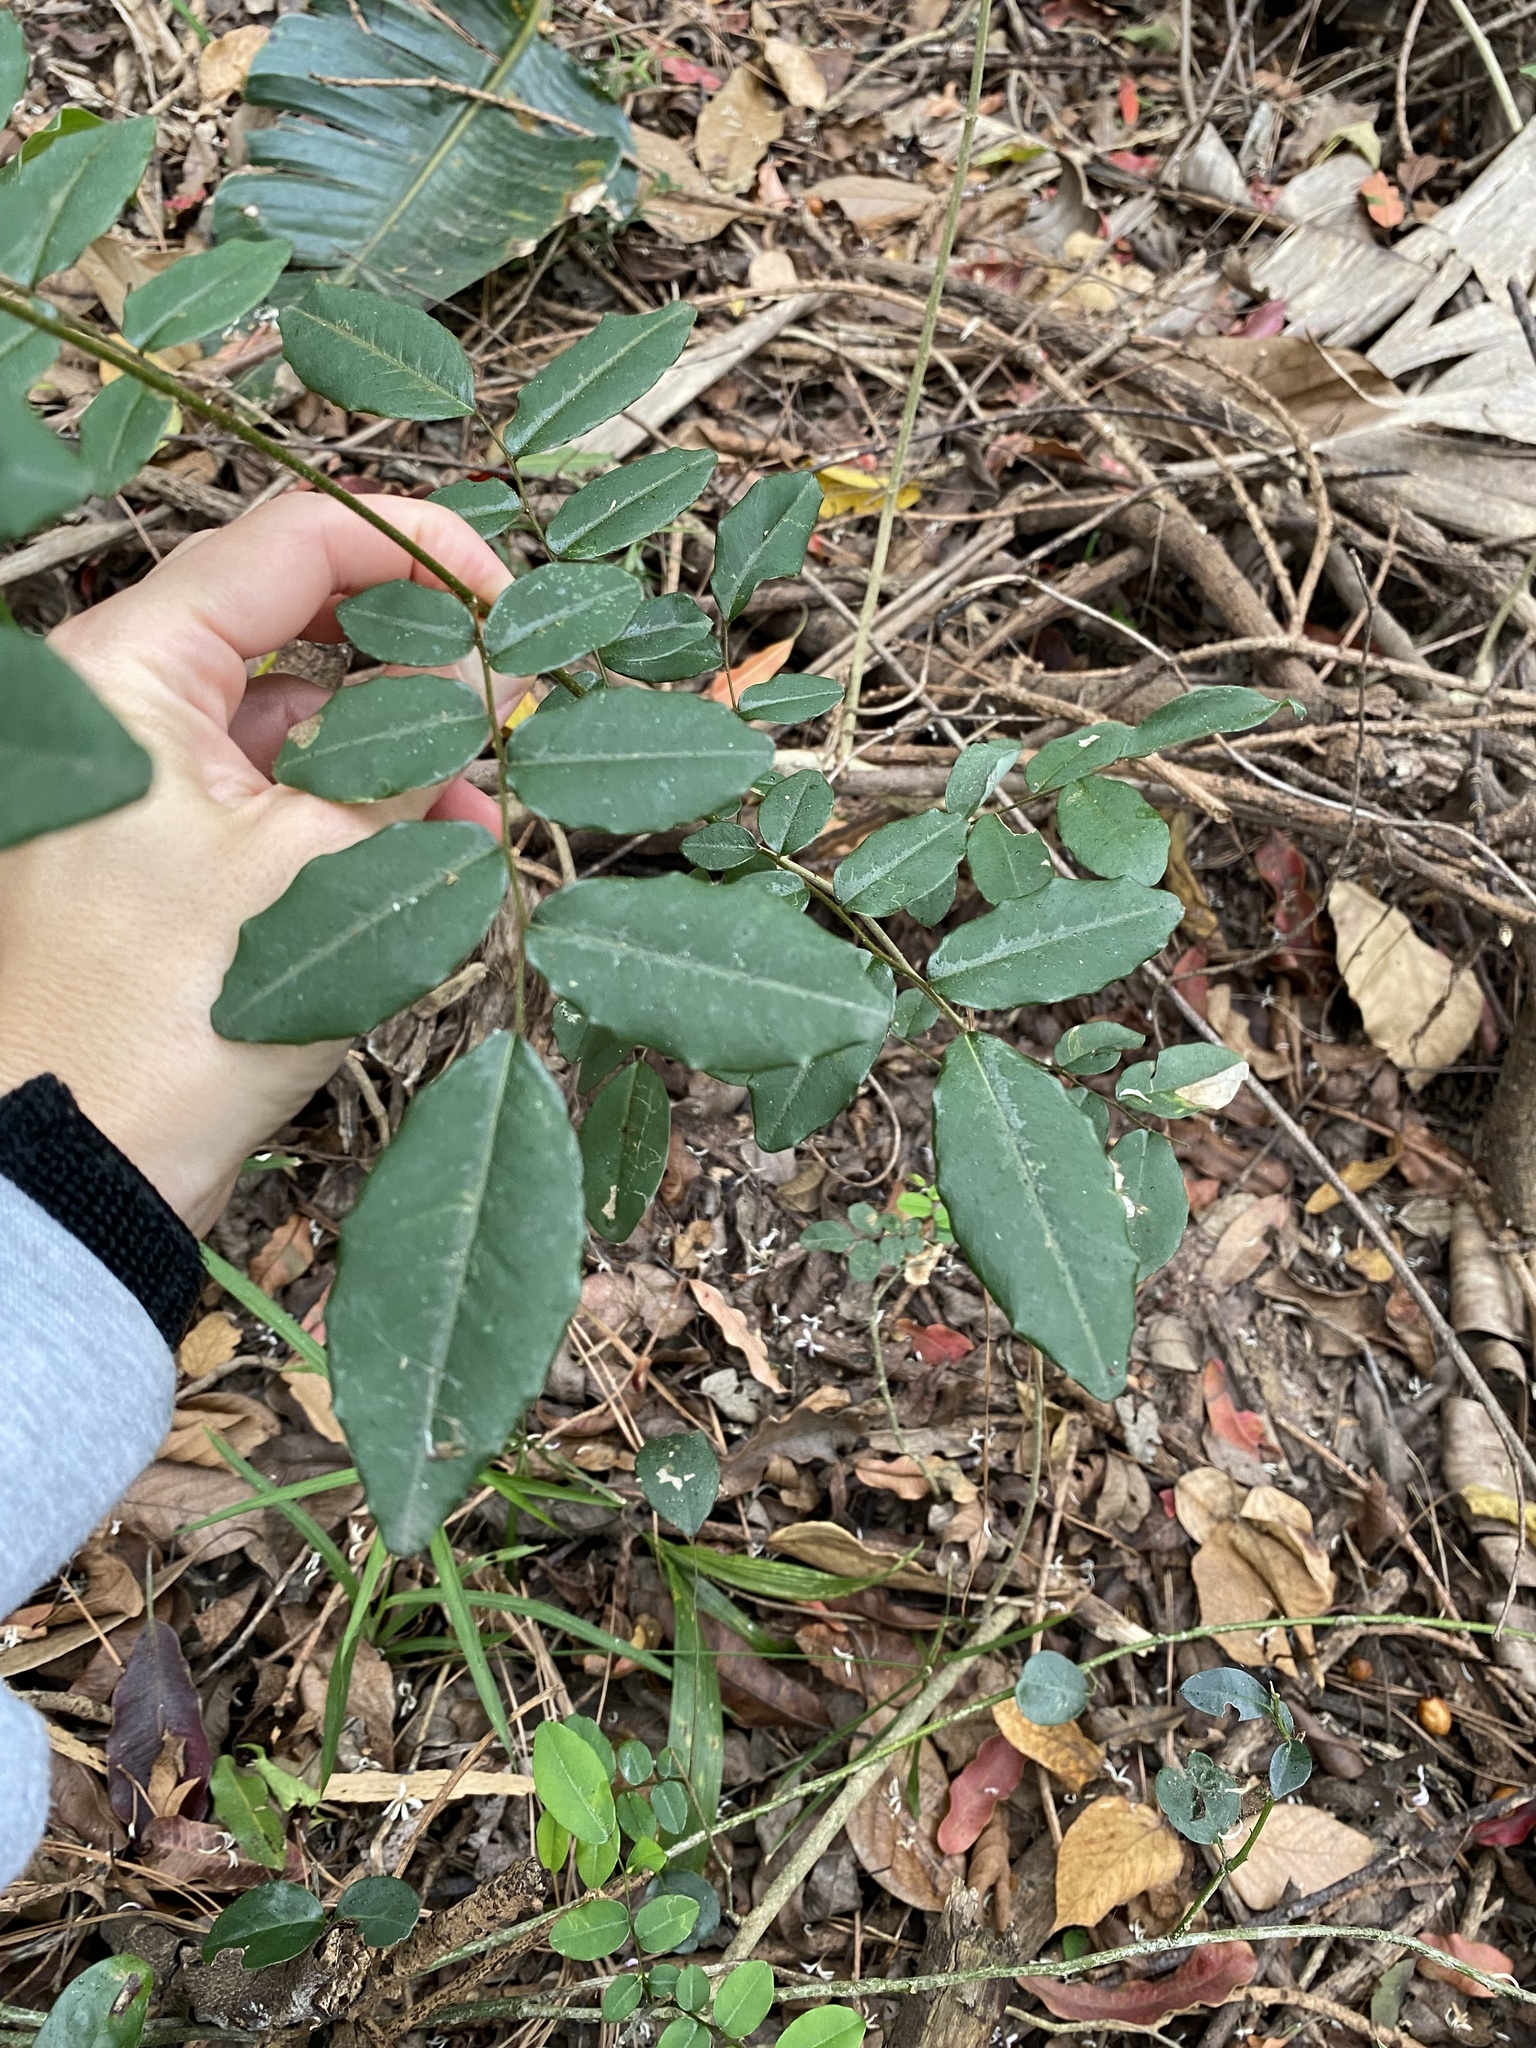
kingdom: Plantae
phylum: Tracheophyta
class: Magnoliopsida
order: Fabales
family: Fabaceae
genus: Dalbergia
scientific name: Dalbergia obovata
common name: Climbing flat-bean
